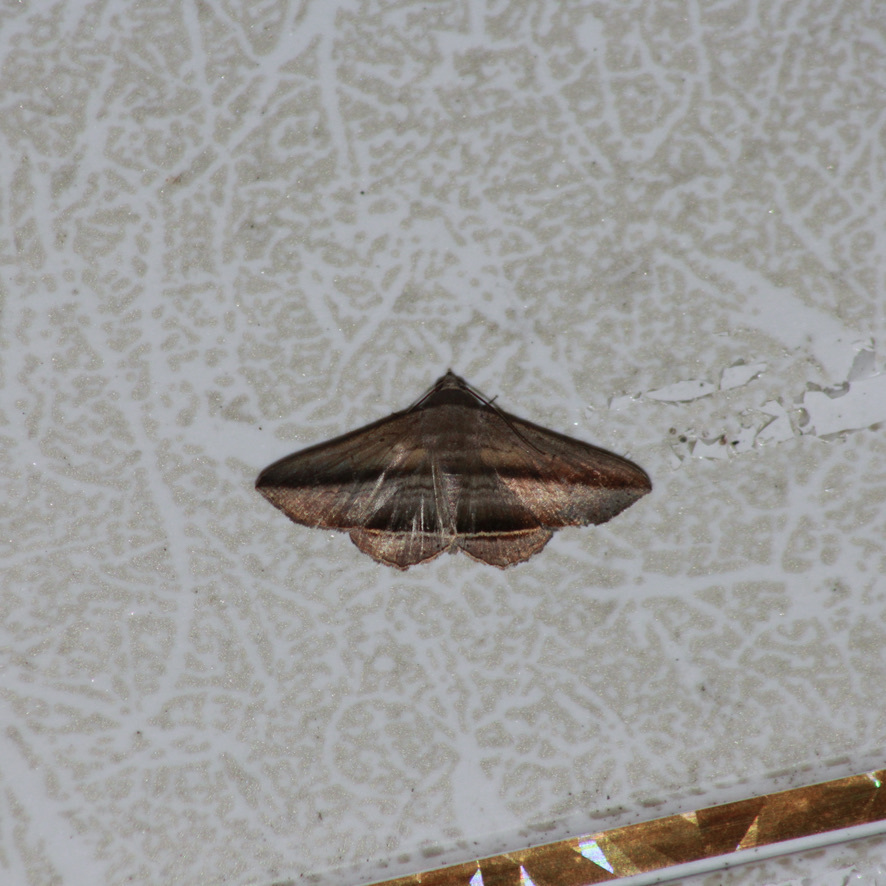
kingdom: Animalia
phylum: Arthropoda
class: Insecta
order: Lepidoptera
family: Erebidae
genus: Bendis
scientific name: Bendis duplicans
